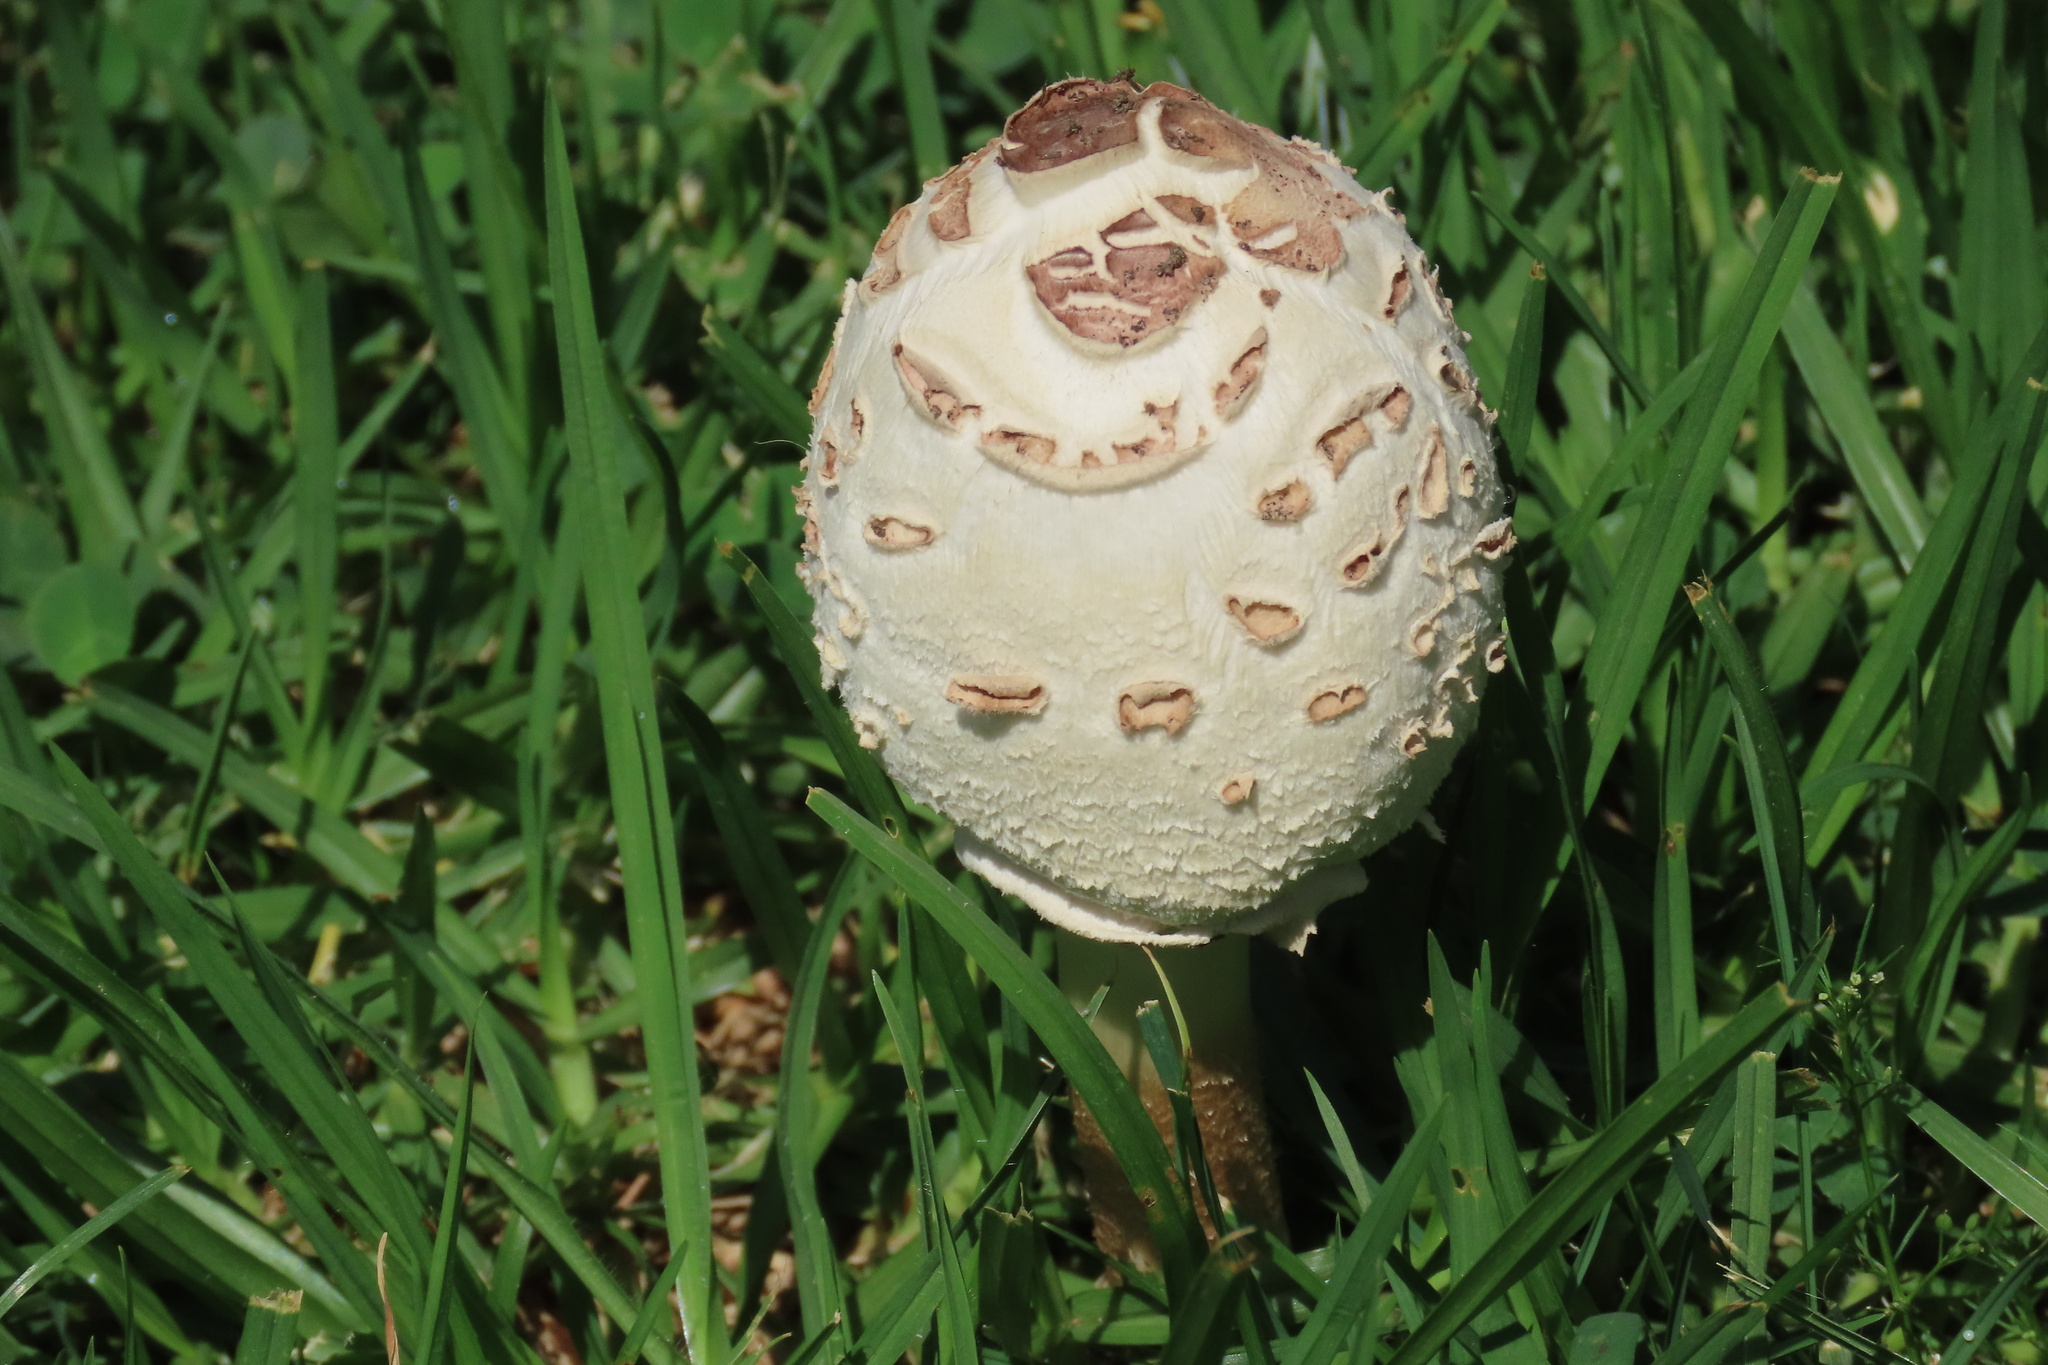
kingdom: Fungi
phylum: Basidiomycota
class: Agaricomycetes
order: Agaricales
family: Agaricaceae
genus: Chlorophyllum
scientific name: Chlorophyllum molybdites
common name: False parasol
